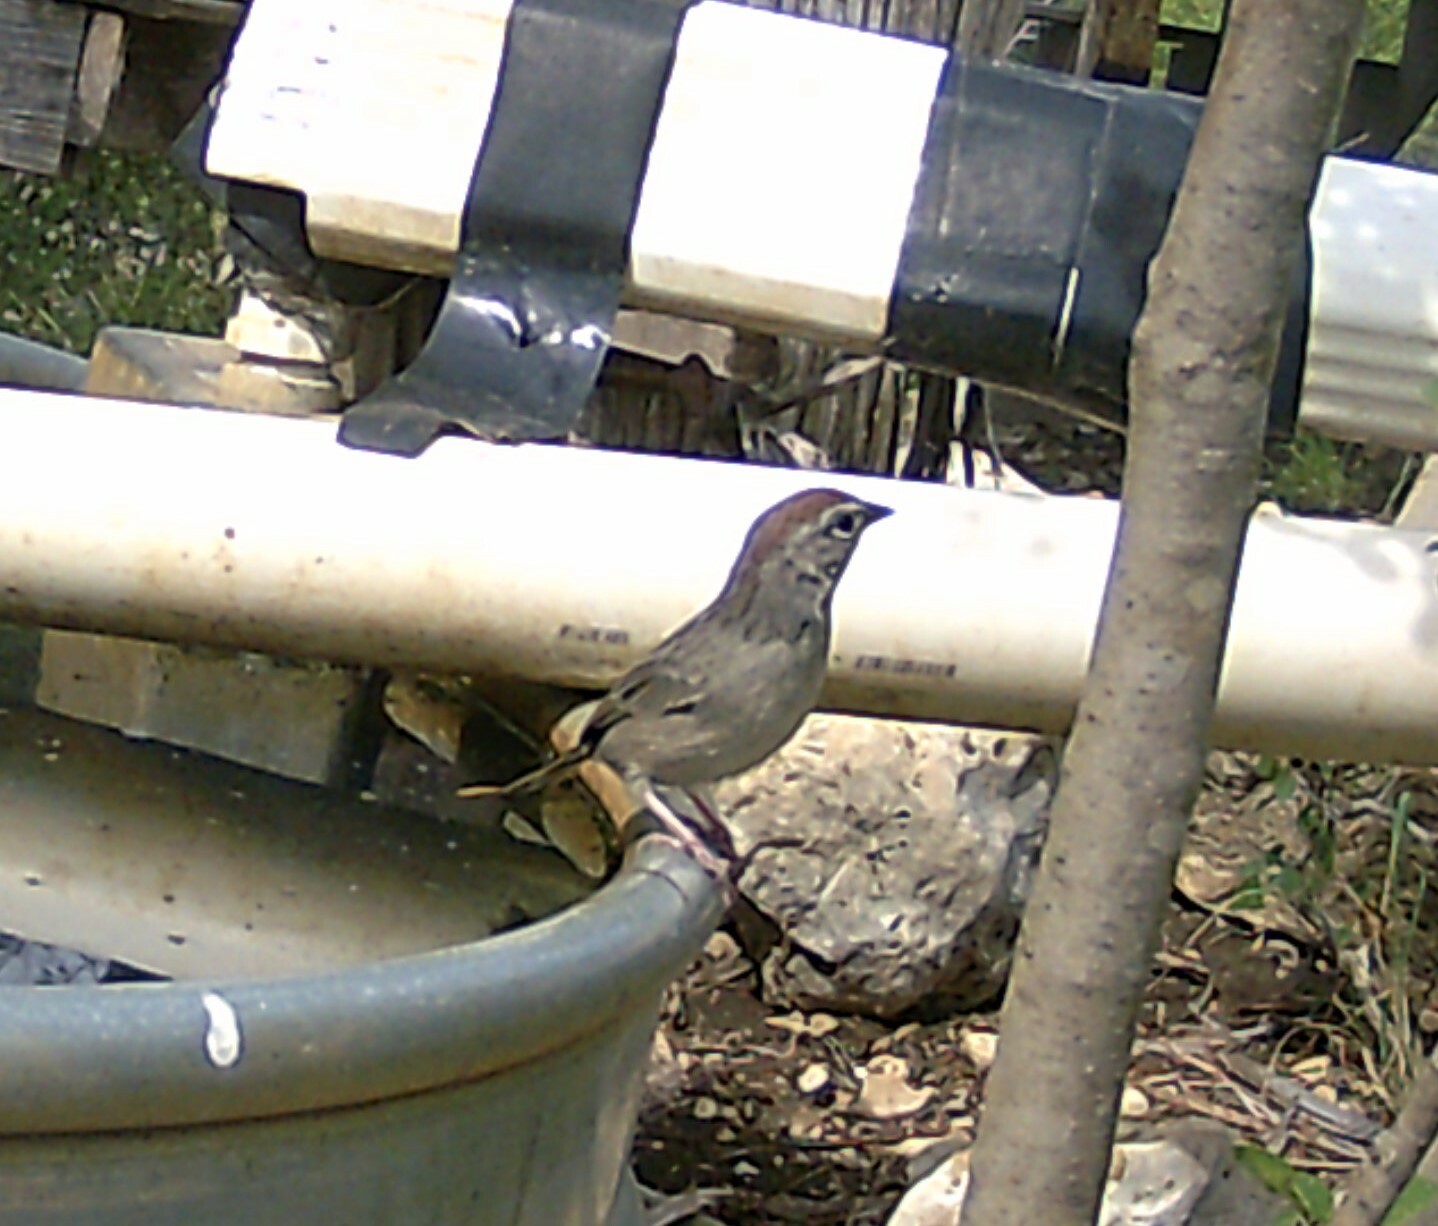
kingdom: Animalia
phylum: Chordata
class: Aves
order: Passeriformes
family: Passerellidae
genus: Aimophila
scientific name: Aimophila ruficeps
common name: Rufous-crowned sparrow
